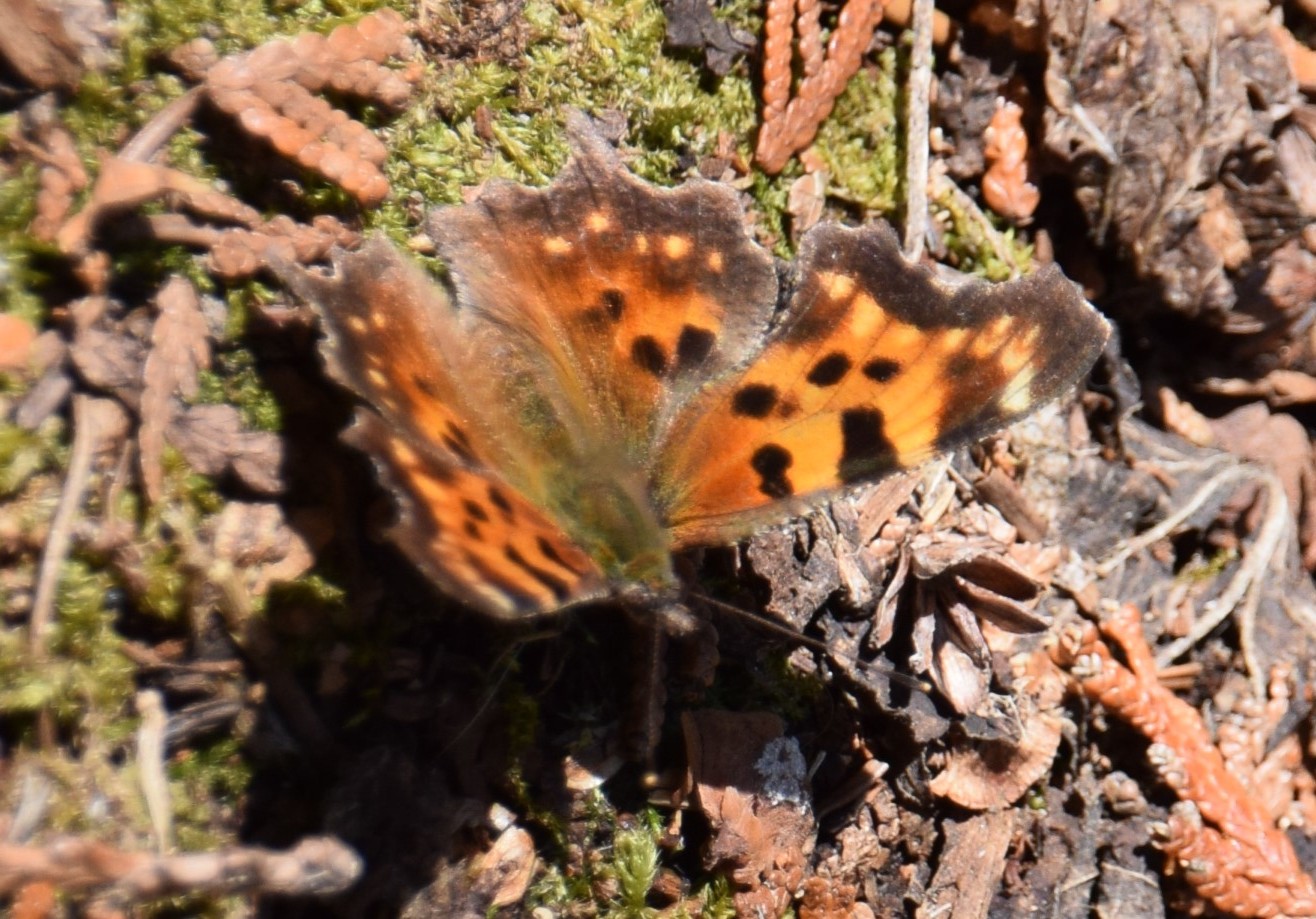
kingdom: Animalia
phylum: Arthropoda
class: Insecta
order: Lepidoptera
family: Nymphalidae
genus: Polygonia
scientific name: Polygonia faunus
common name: Green comma
